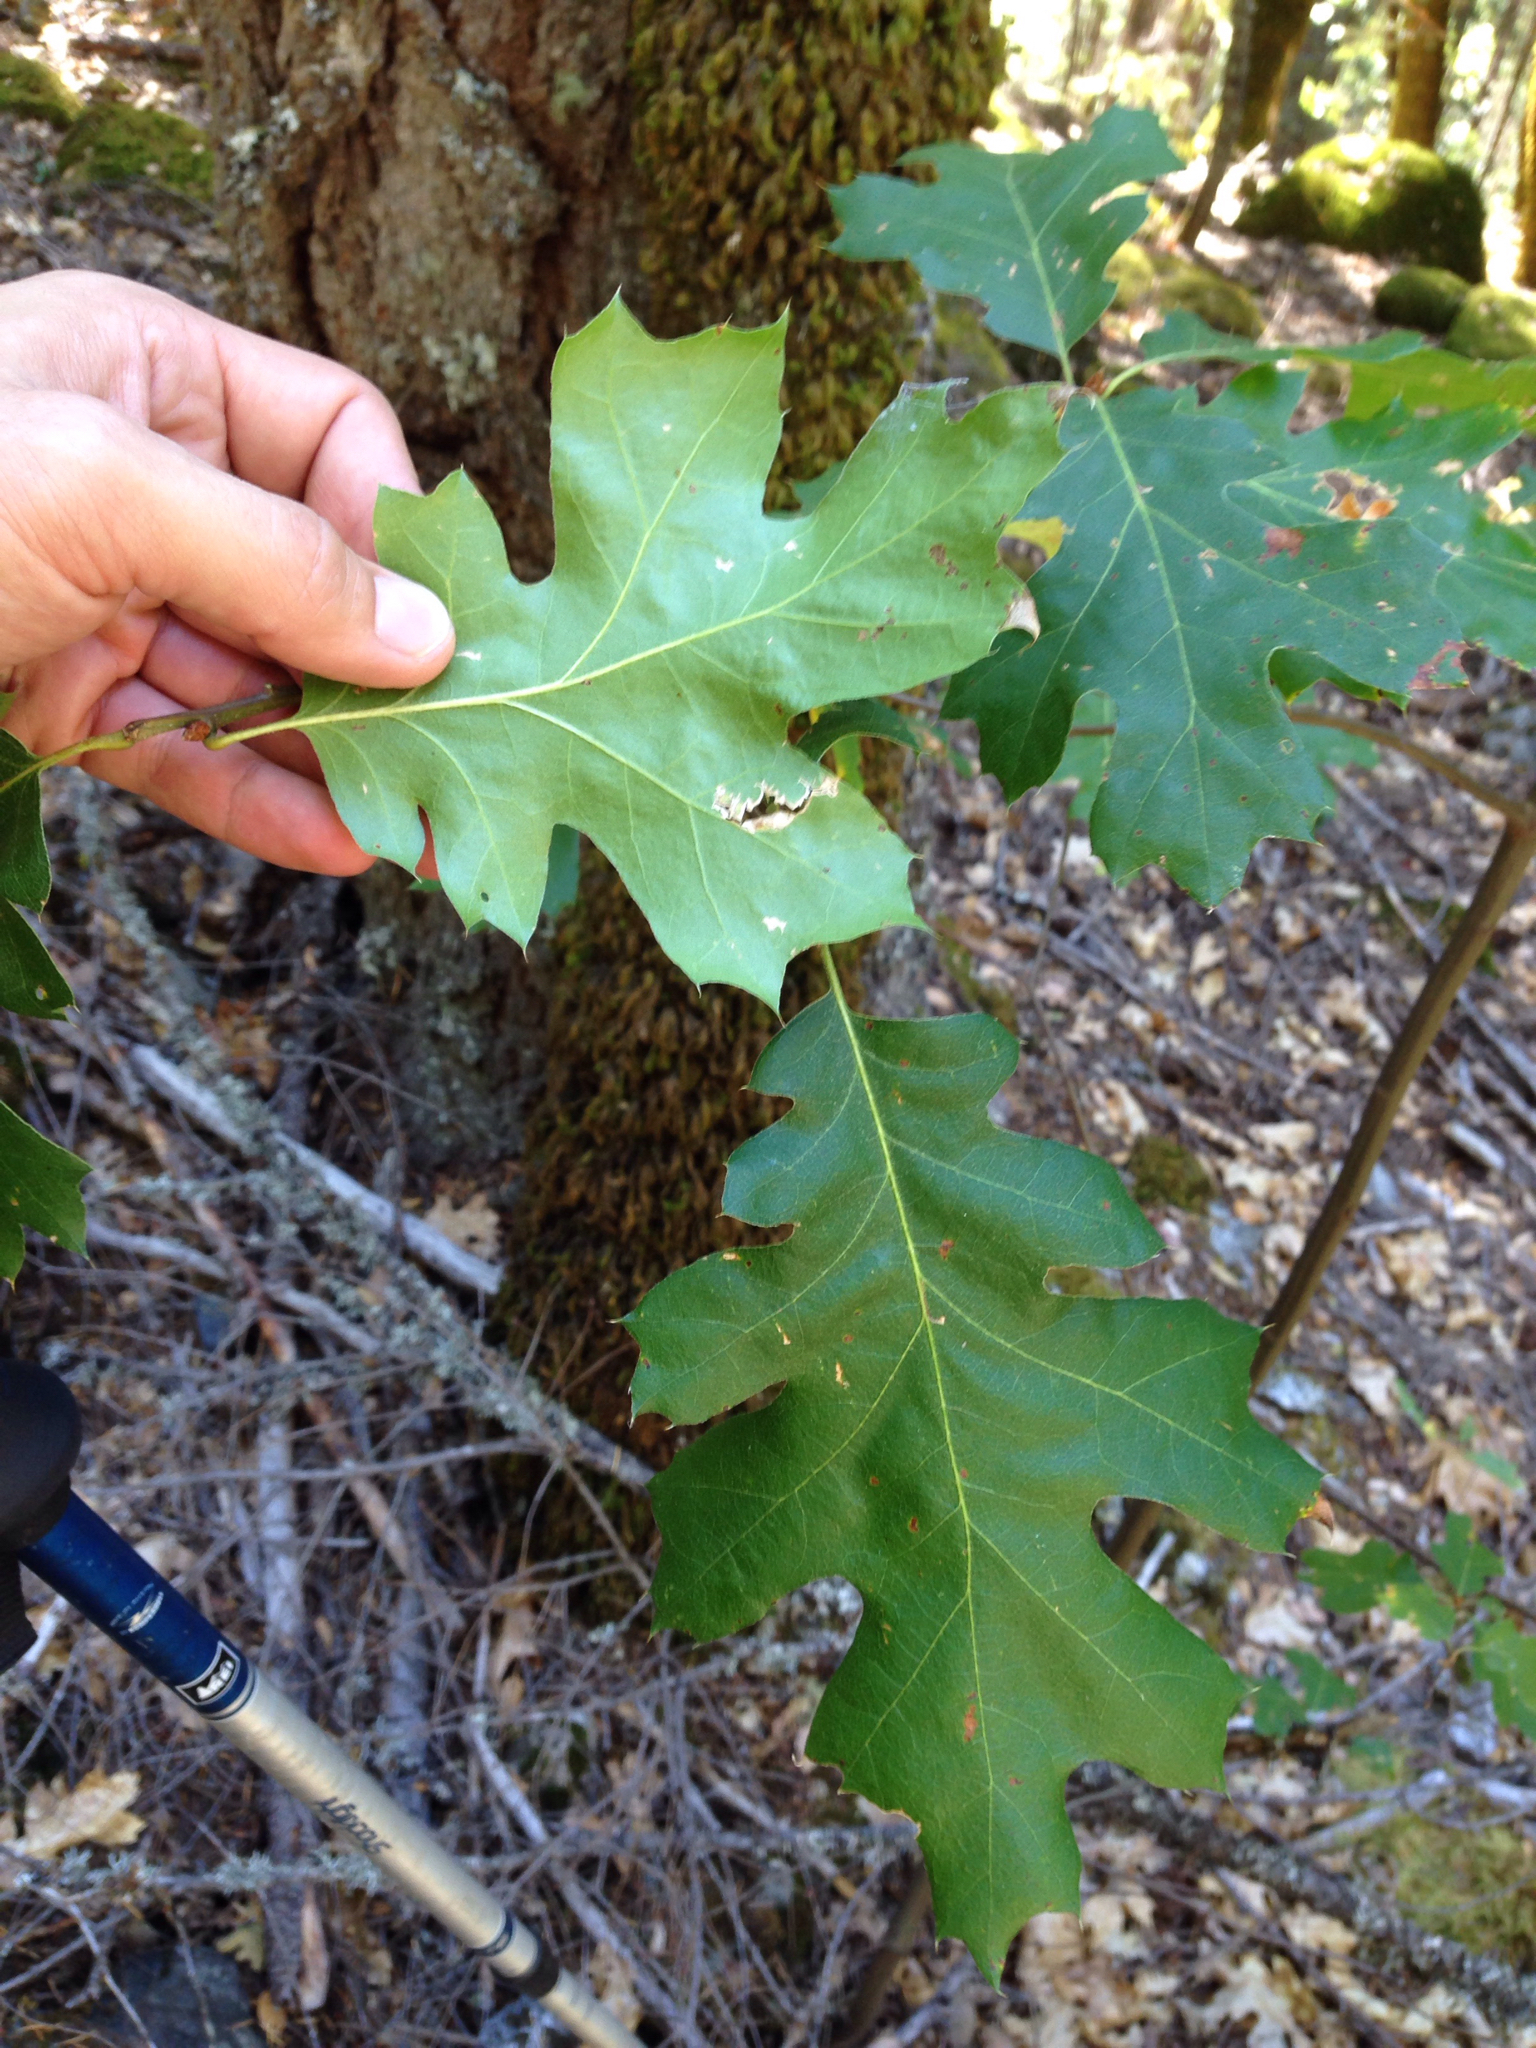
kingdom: Plantae
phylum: Tracheophyta
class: Magnoliopsida
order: Fagales
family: Fagaceae
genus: Quercus
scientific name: Quercus kelloggii
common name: California black oak
